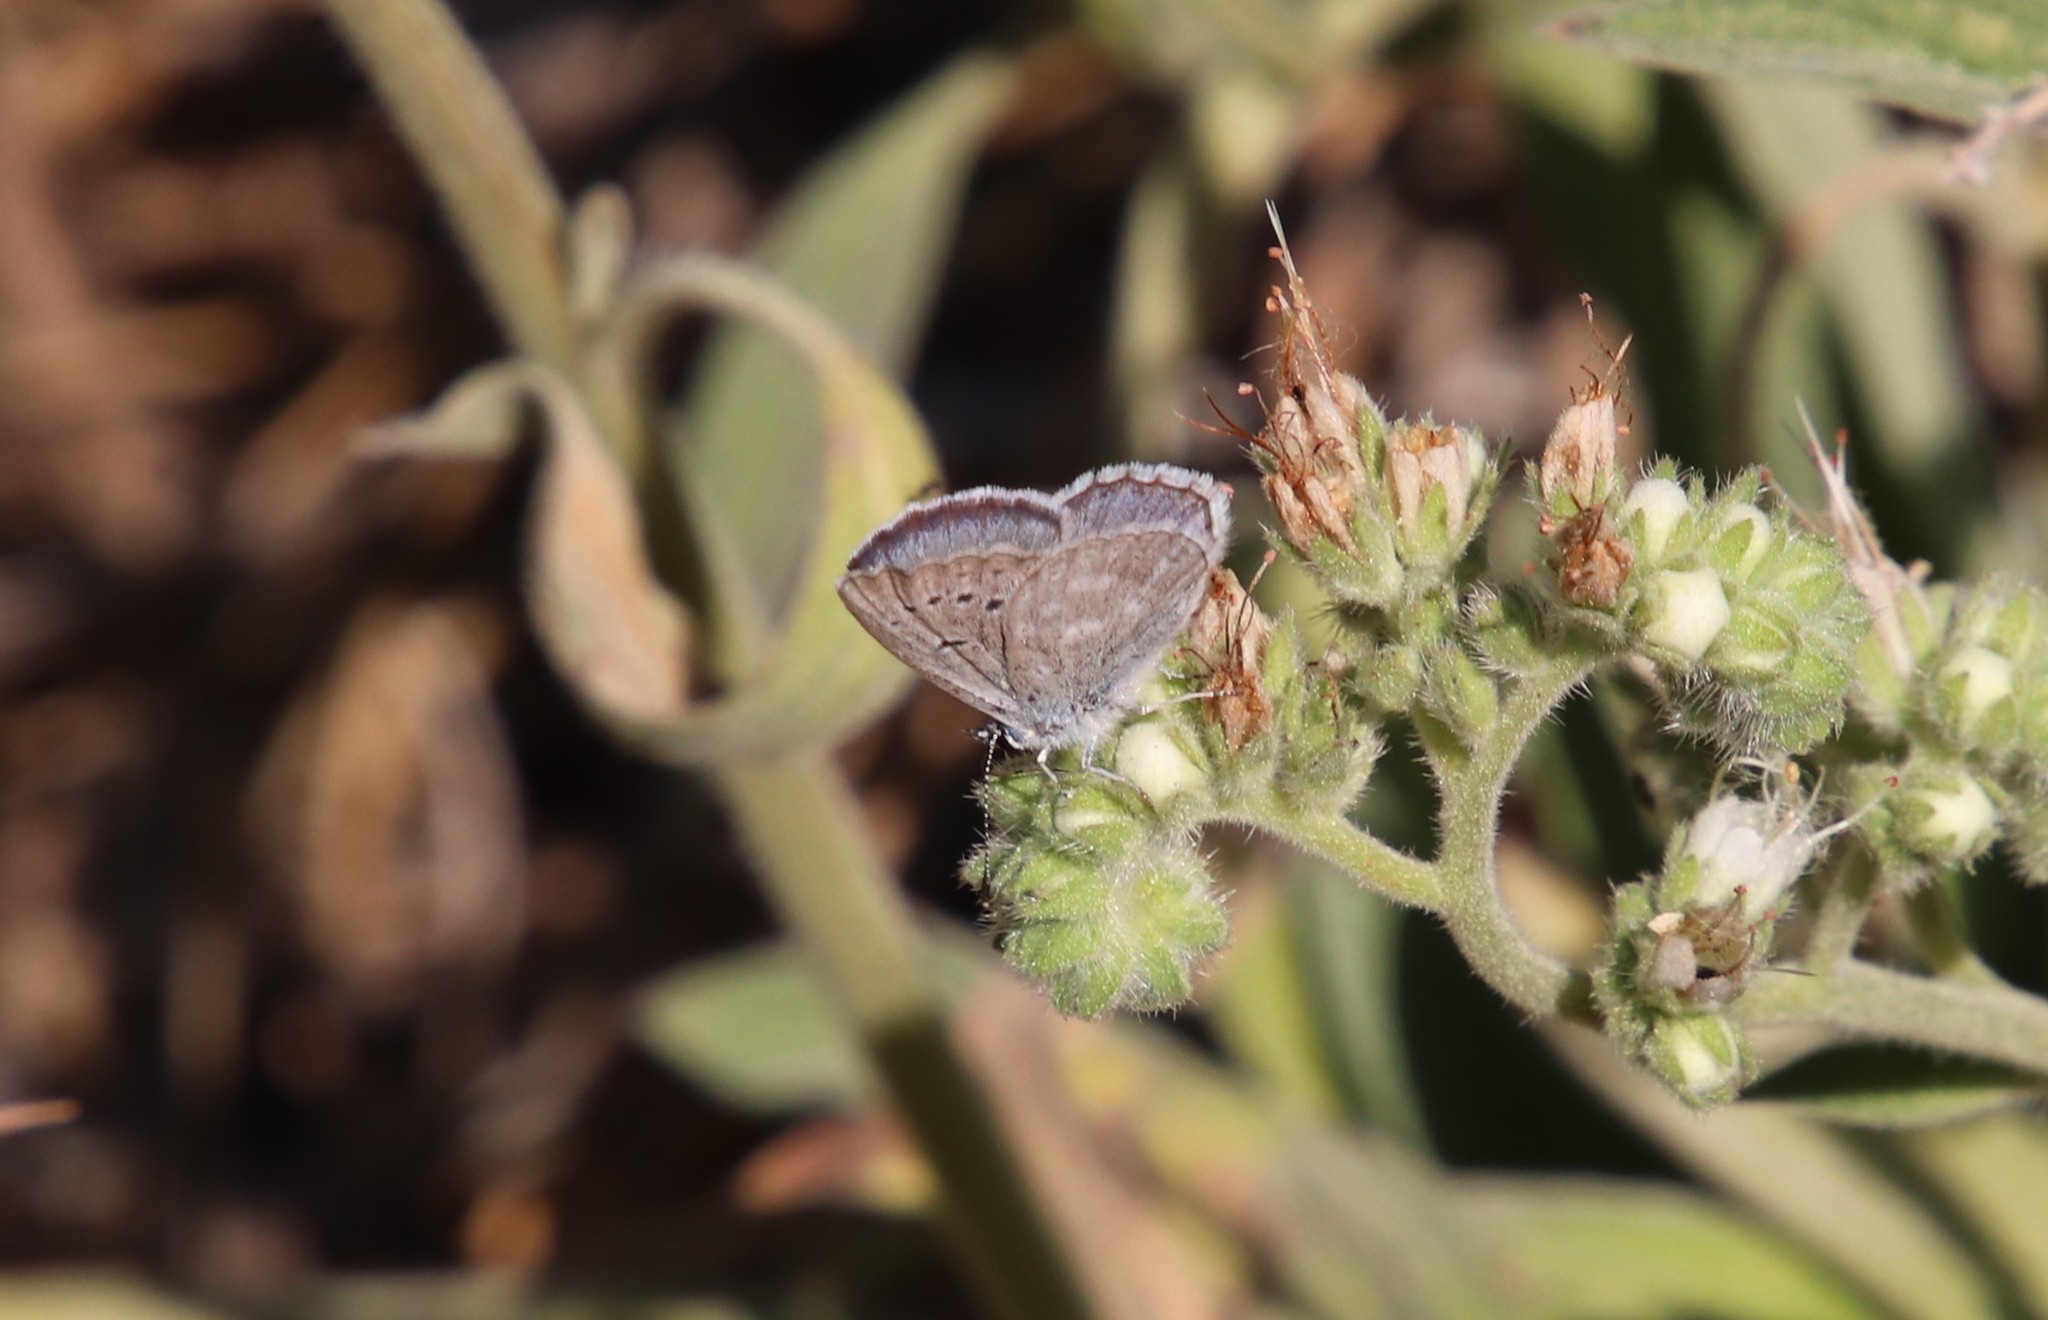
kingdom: Animalia
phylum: Arthropoda
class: Insecta
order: Lepidoptera
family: Lycaenidae
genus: Icaricia
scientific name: Icaricia icarioides
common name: Boisduval's blue
